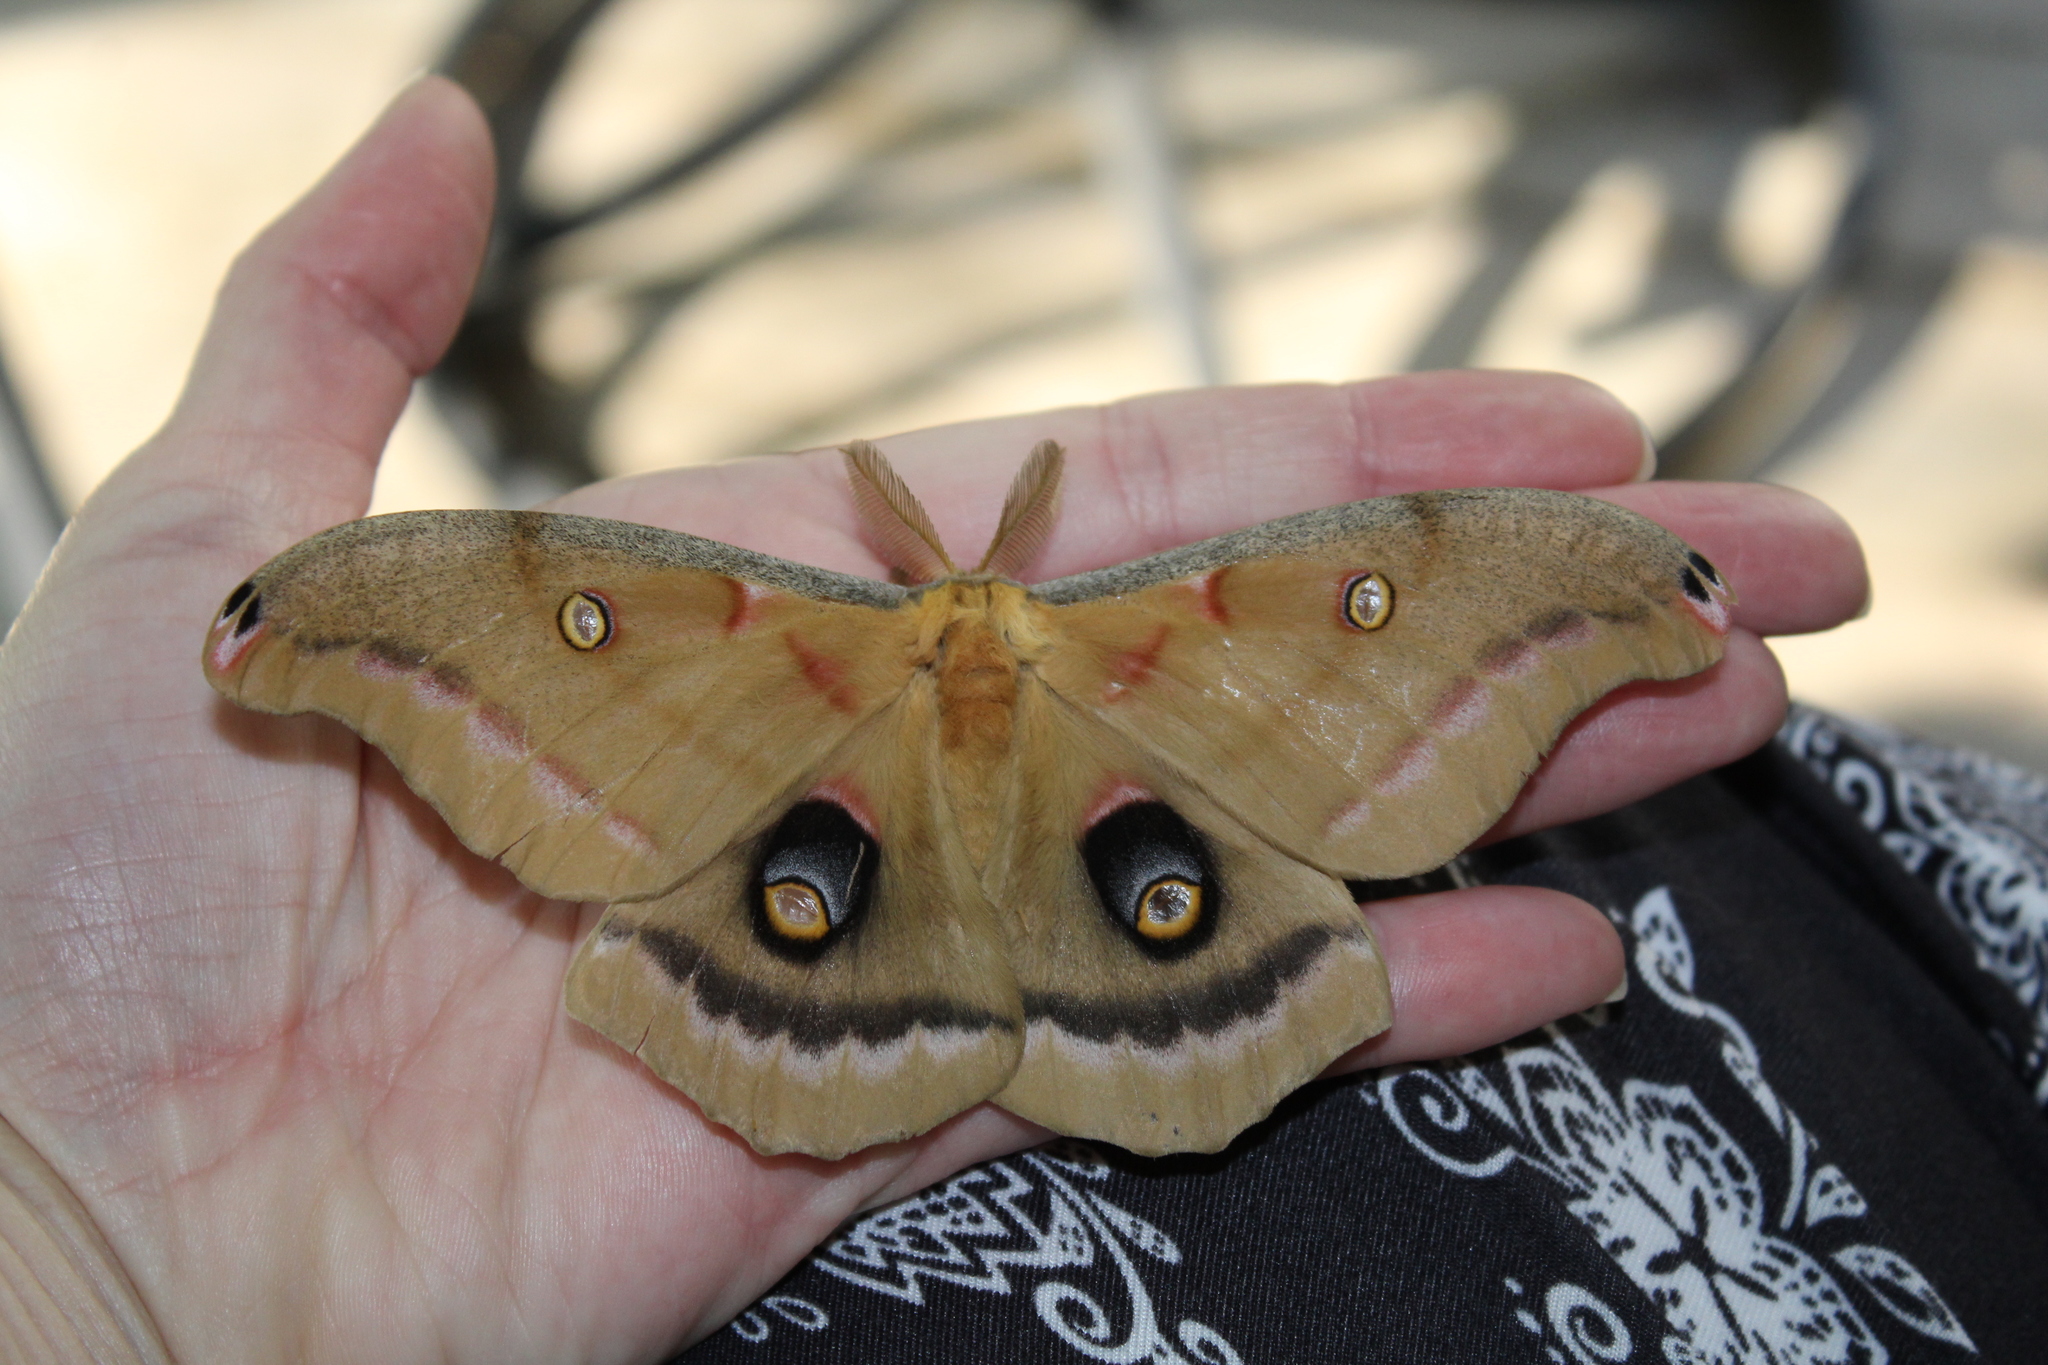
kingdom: Animalia
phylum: Arthropoda
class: Insecta
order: Lepidoptera
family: Saturniidae
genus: Antheraea
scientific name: Antheraea polyphemus
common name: Polyphemus moth
